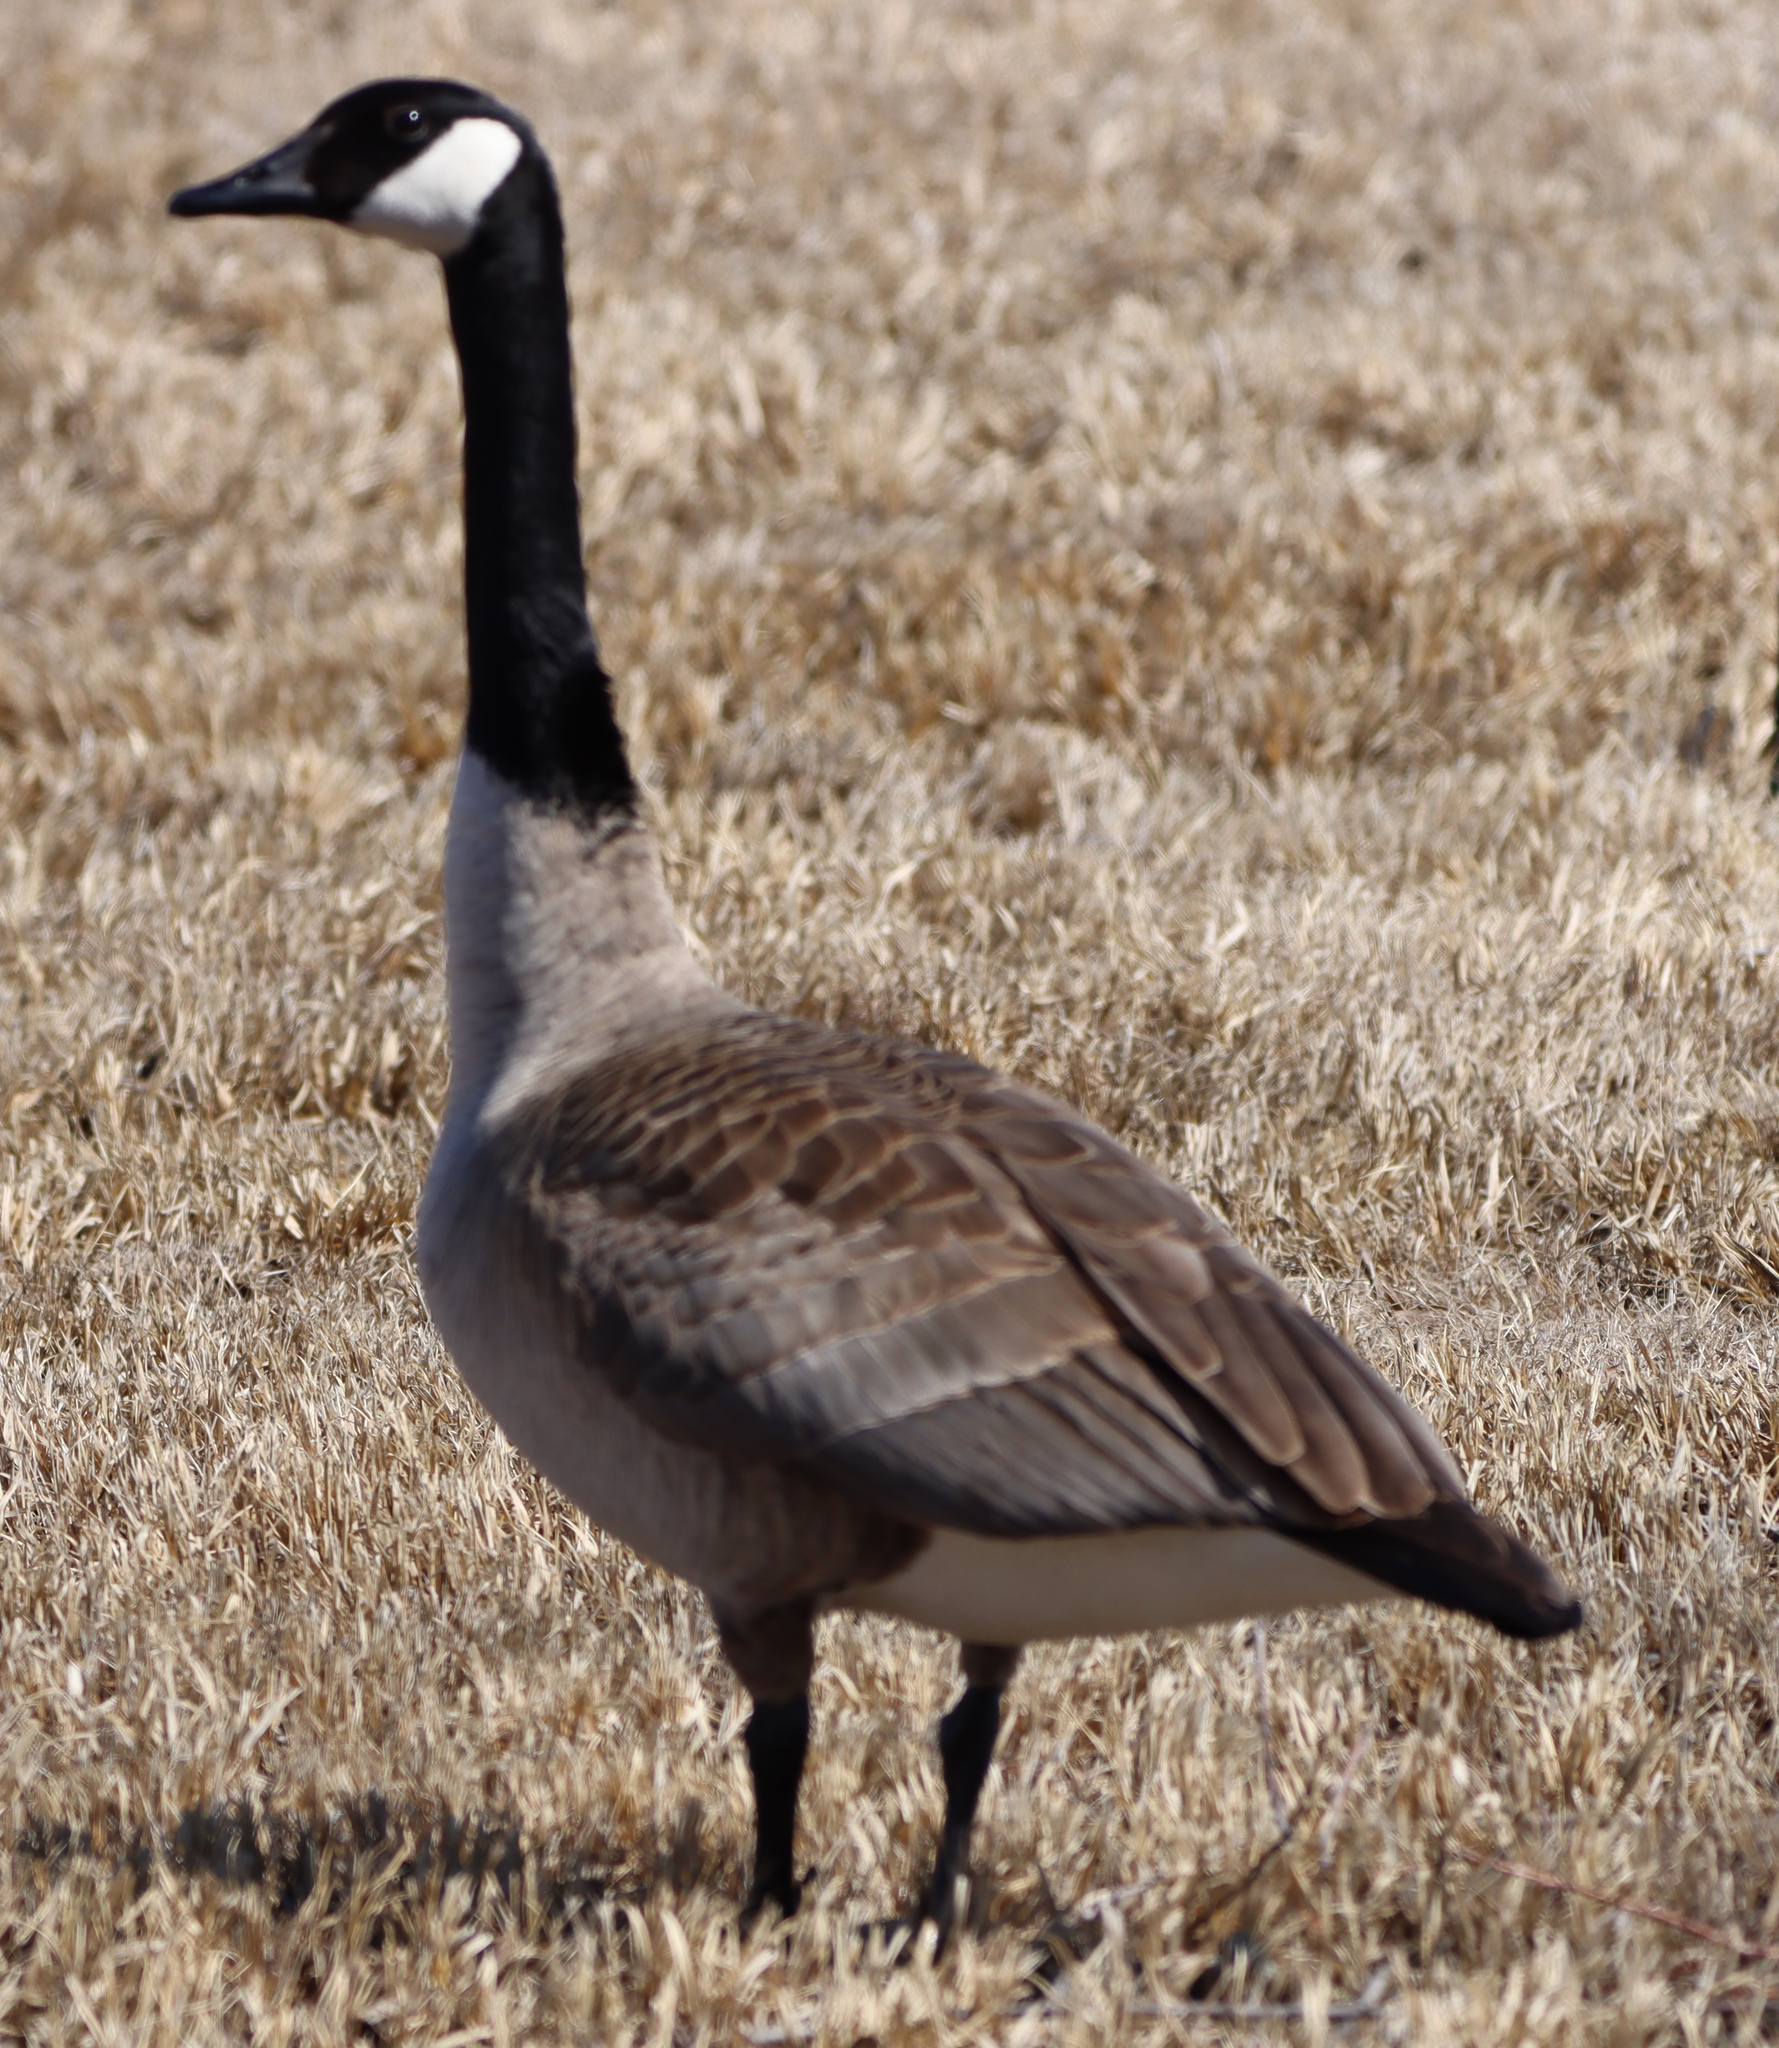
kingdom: Animalia
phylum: Chordata
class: Aves
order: Anseriformes
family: Anatidae
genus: Branta
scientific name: Branta canadensis
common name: Canada goose
